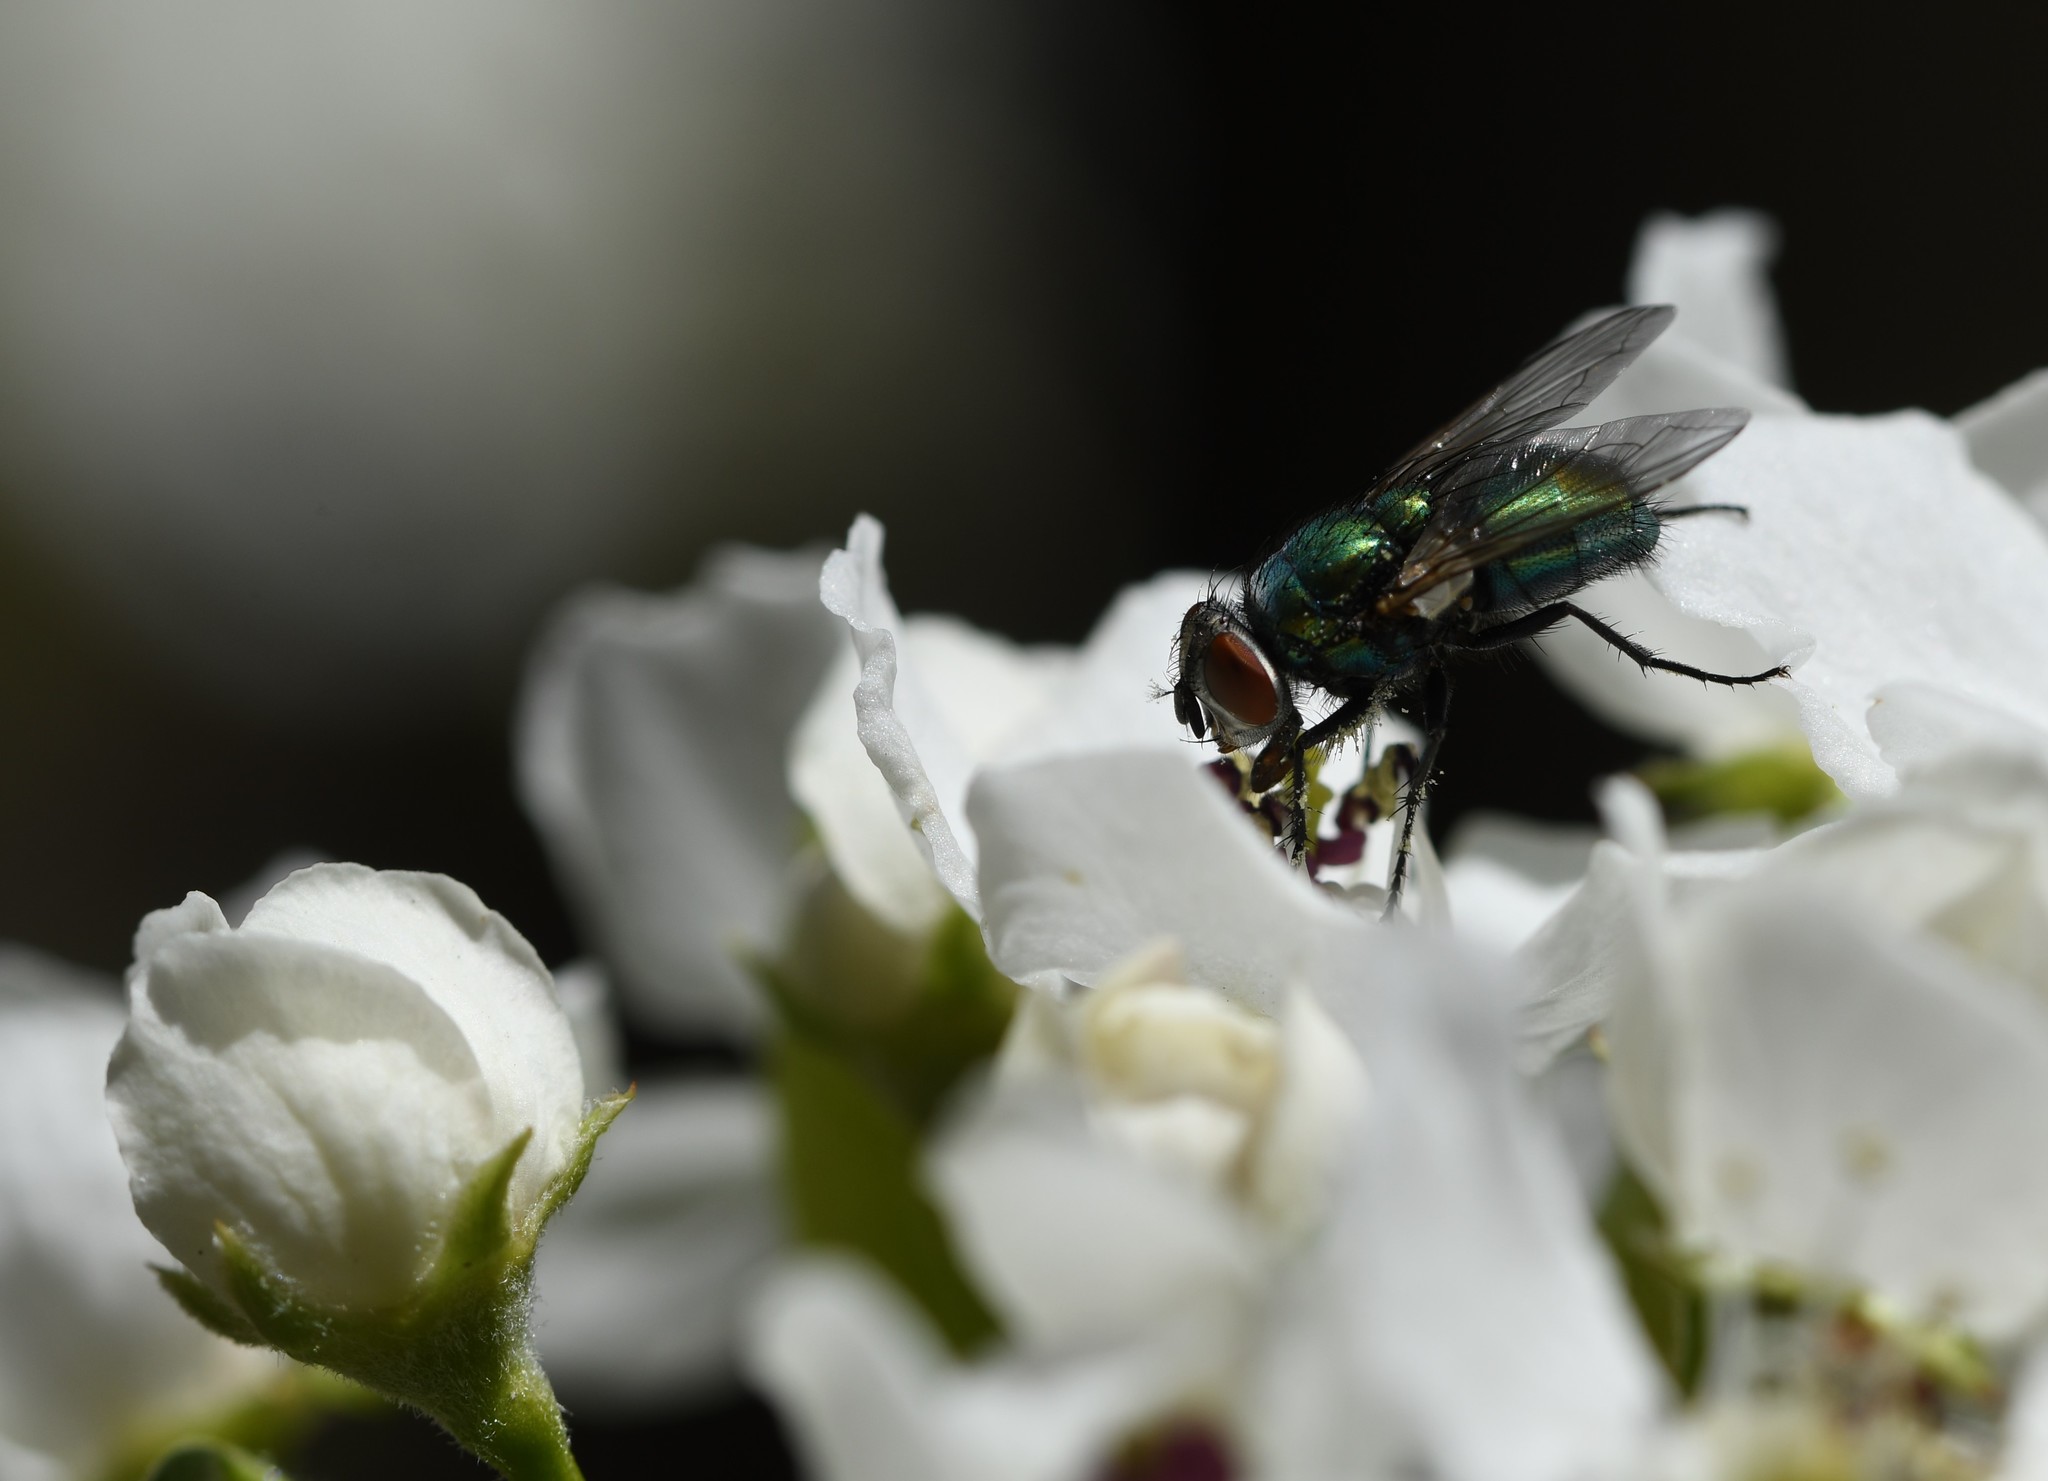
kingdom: Animalia
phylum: Arthropoda
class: Insecta
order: Diptera
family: Calliphoridae
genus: Lucilia
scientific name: Lucilia sericata
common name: Blow fly
